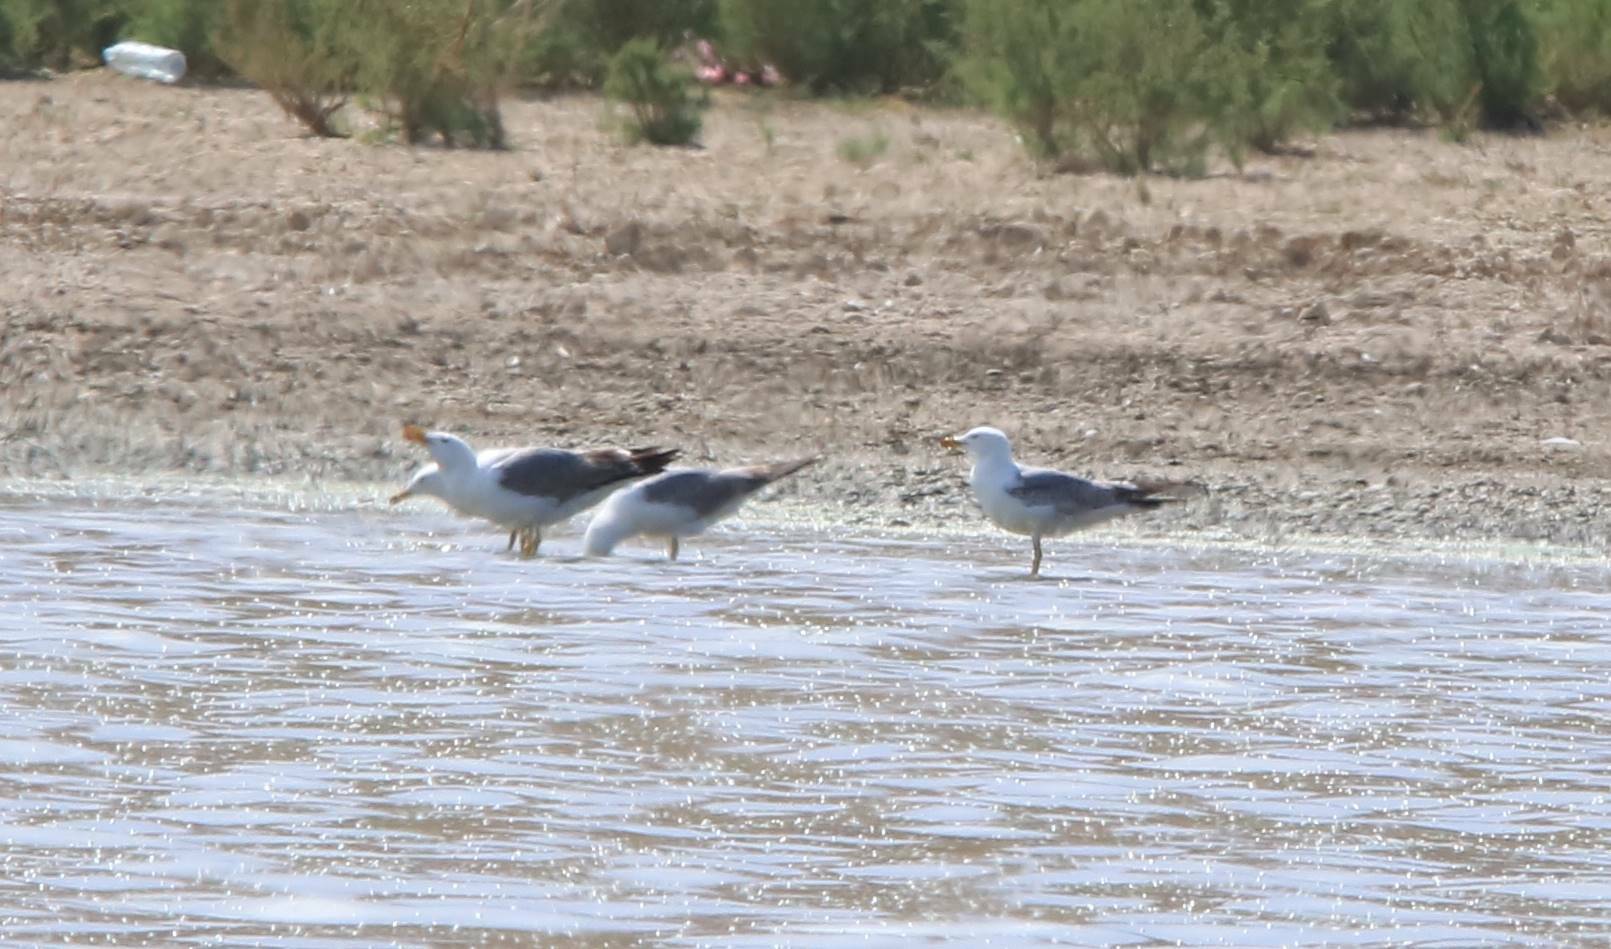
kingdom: Animalia
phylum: Chordata
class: Aves
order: Charadriiformes
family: Laridae
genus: Larus
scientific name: Larus michahellis
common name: Yellow-legged gull
